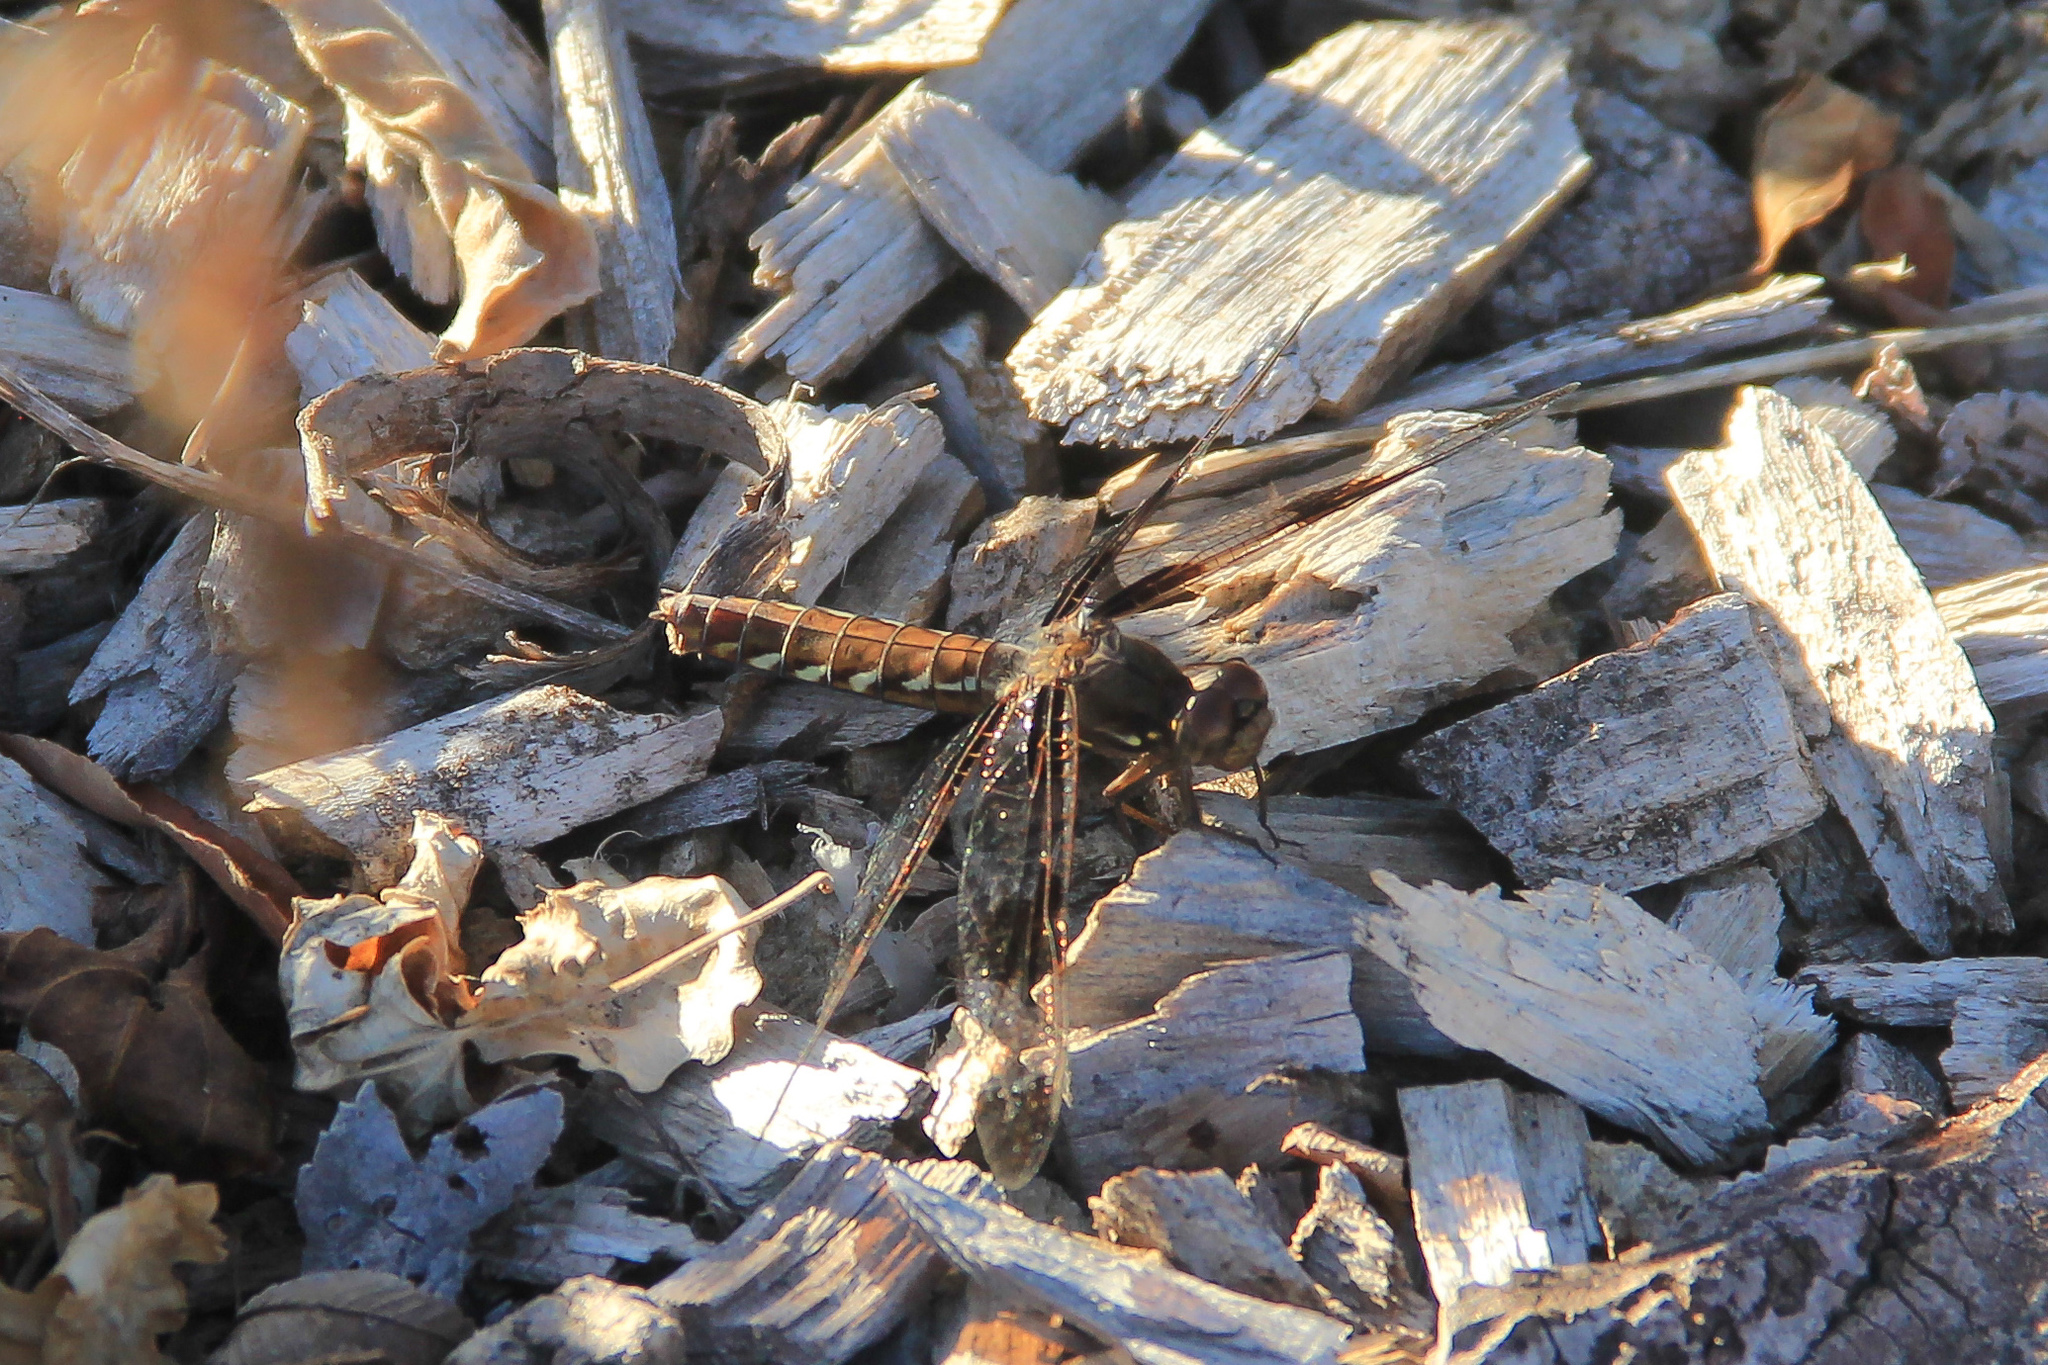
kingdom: Animalia
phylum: Arthropoda
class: Insecta
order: Odonata
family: Libellulidae
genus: Plathemis
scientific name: Plathemis lydia
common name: Common whitetail
